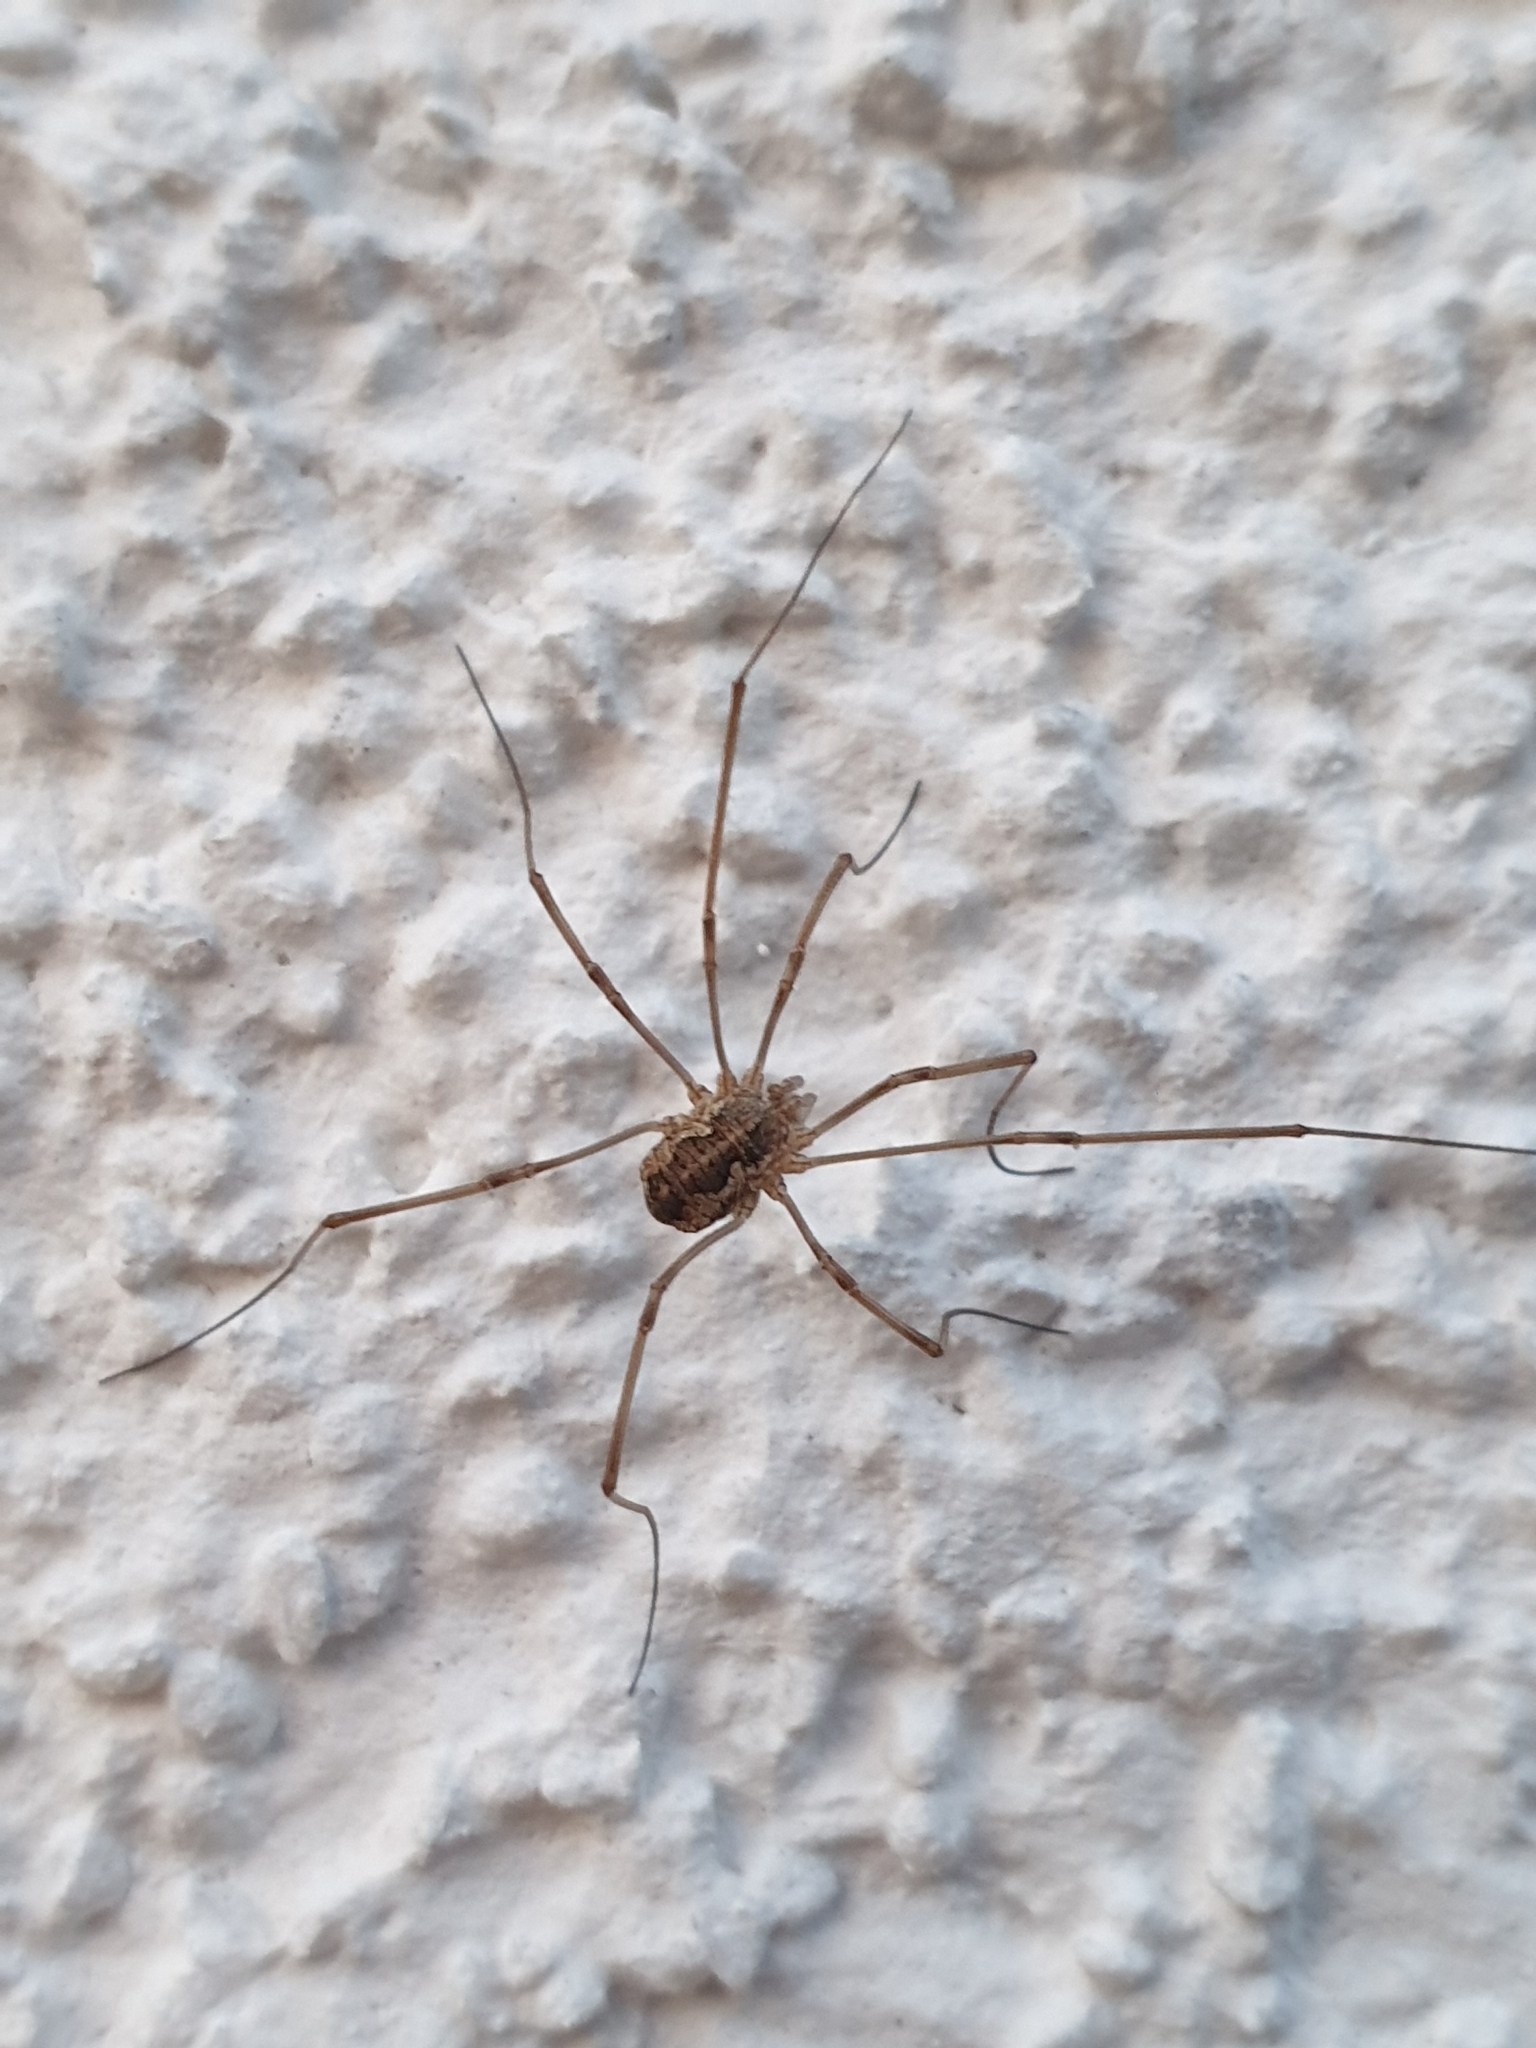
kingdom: Animalia
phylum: Arthropoda
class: Arachnida
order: Opiliones
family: Phalangiidae
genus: Phalangium
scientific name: Phalangium opilio
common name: Daddy longleg
